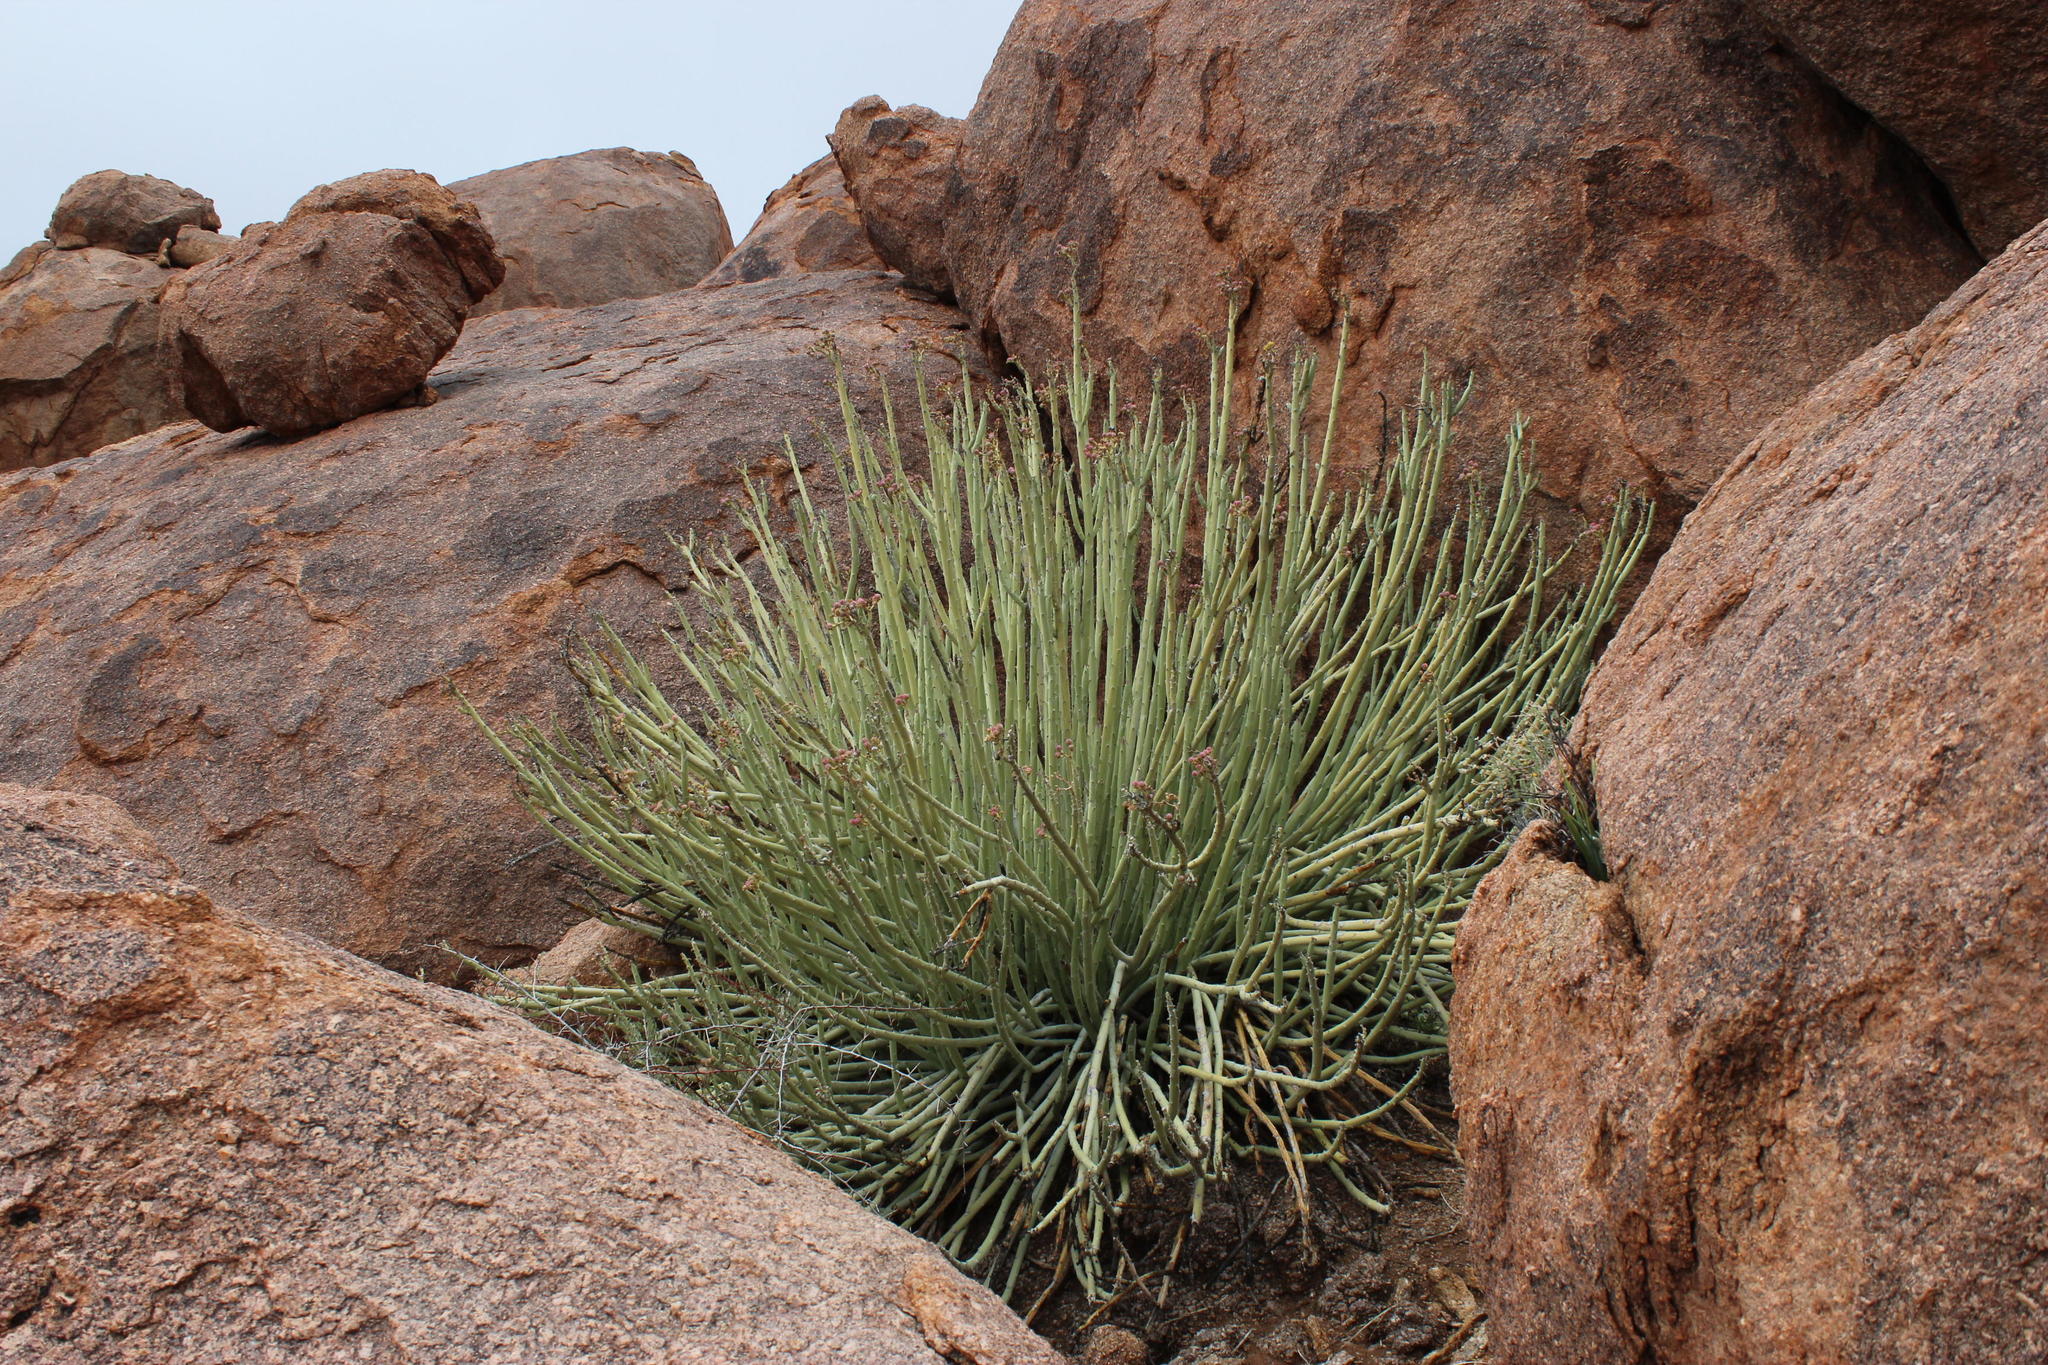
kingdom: Plantae
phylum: Tracheophyta
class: Magnoliopsida
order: Malpighiales
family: Euphorbiaceae
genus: Euphorbia
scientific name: Euphorbia dregeana
